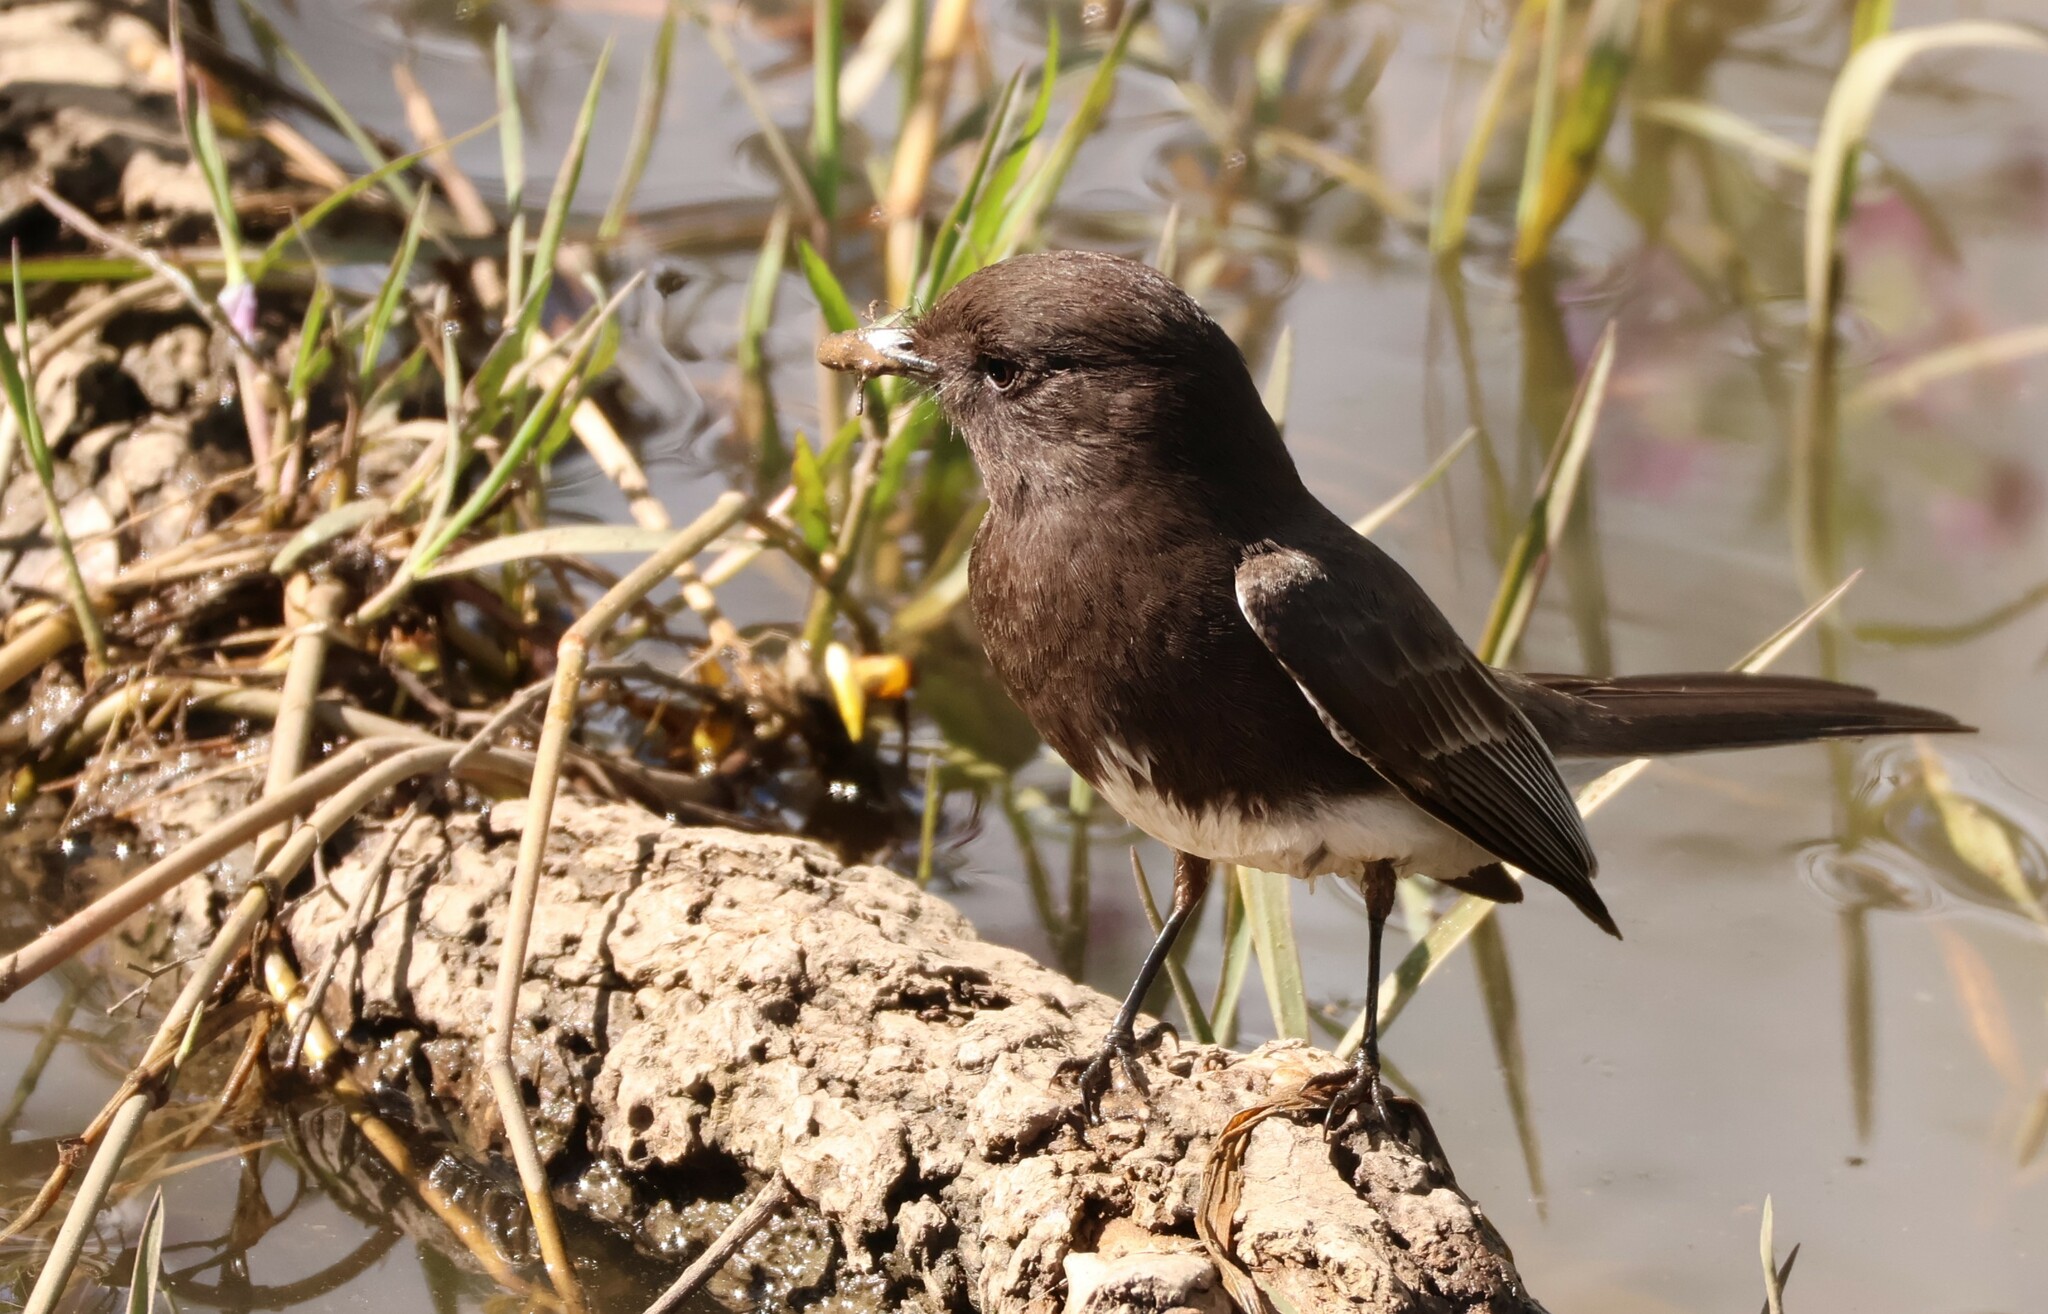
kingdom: Animalia
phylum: Chordata
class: Aves
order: Passeriformes
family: Tyrannidae
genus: Sayornis
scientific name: Sayornis nigricans
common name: Black phoebe
